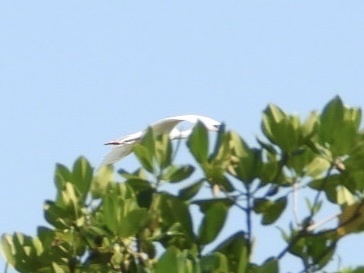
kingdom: Animalia
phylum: Chordata
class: Aves
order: Pelecaniformes
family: Threskiornithidae
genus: Eudocimus
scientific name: Eudocimus albus
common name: White ibis
